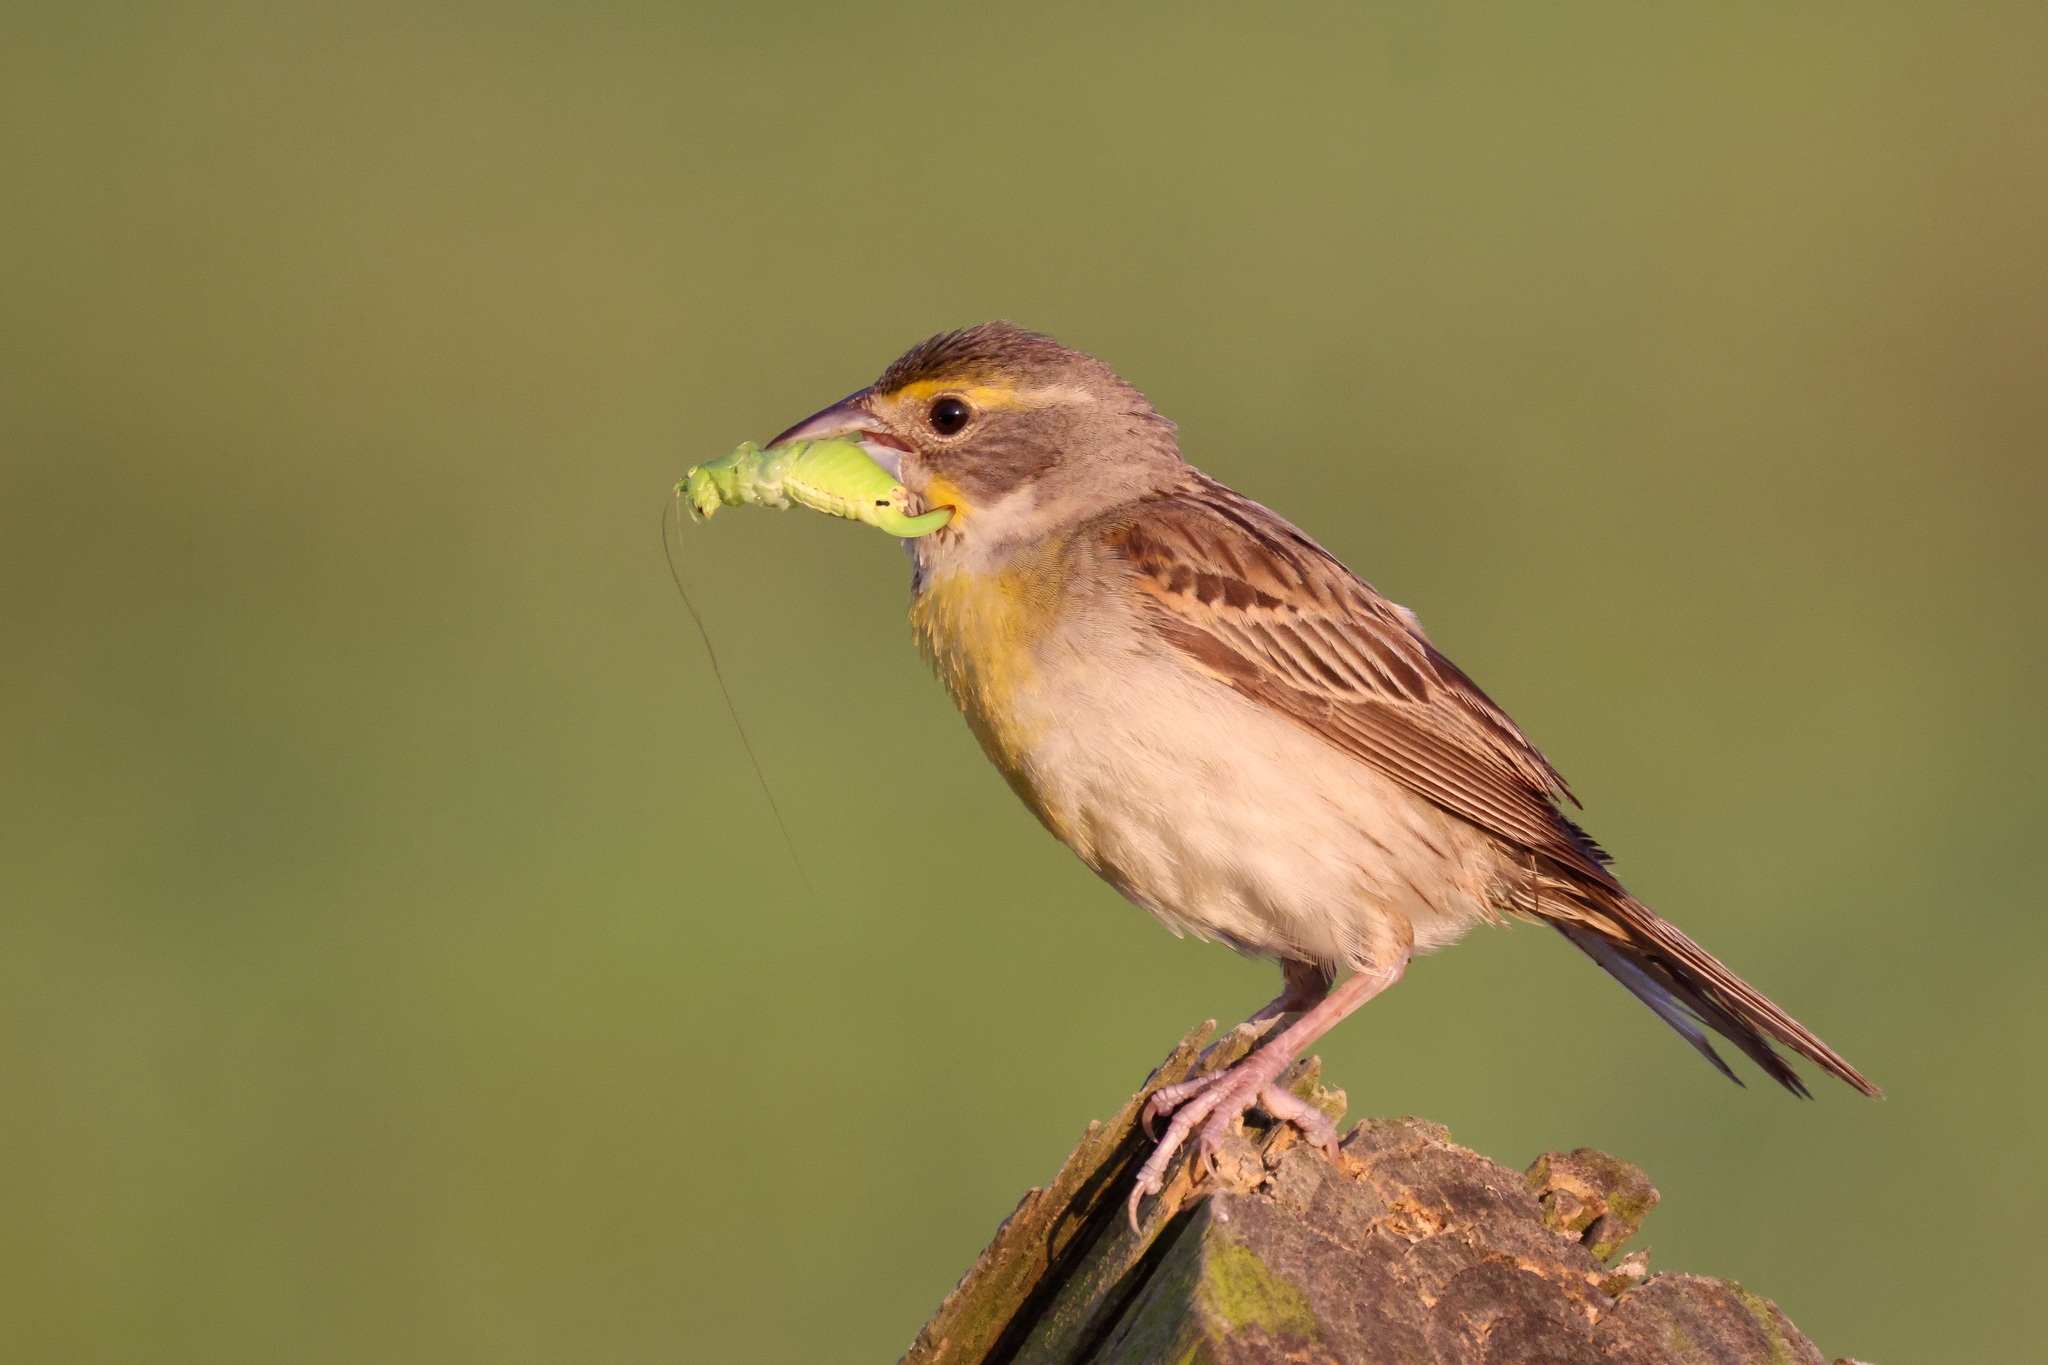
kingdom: Animalia
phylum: Chordata
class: Aves
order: Passeriformes
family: Cardinalidae
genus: Spiza
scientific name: Spiza americana
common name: Dickcissel
